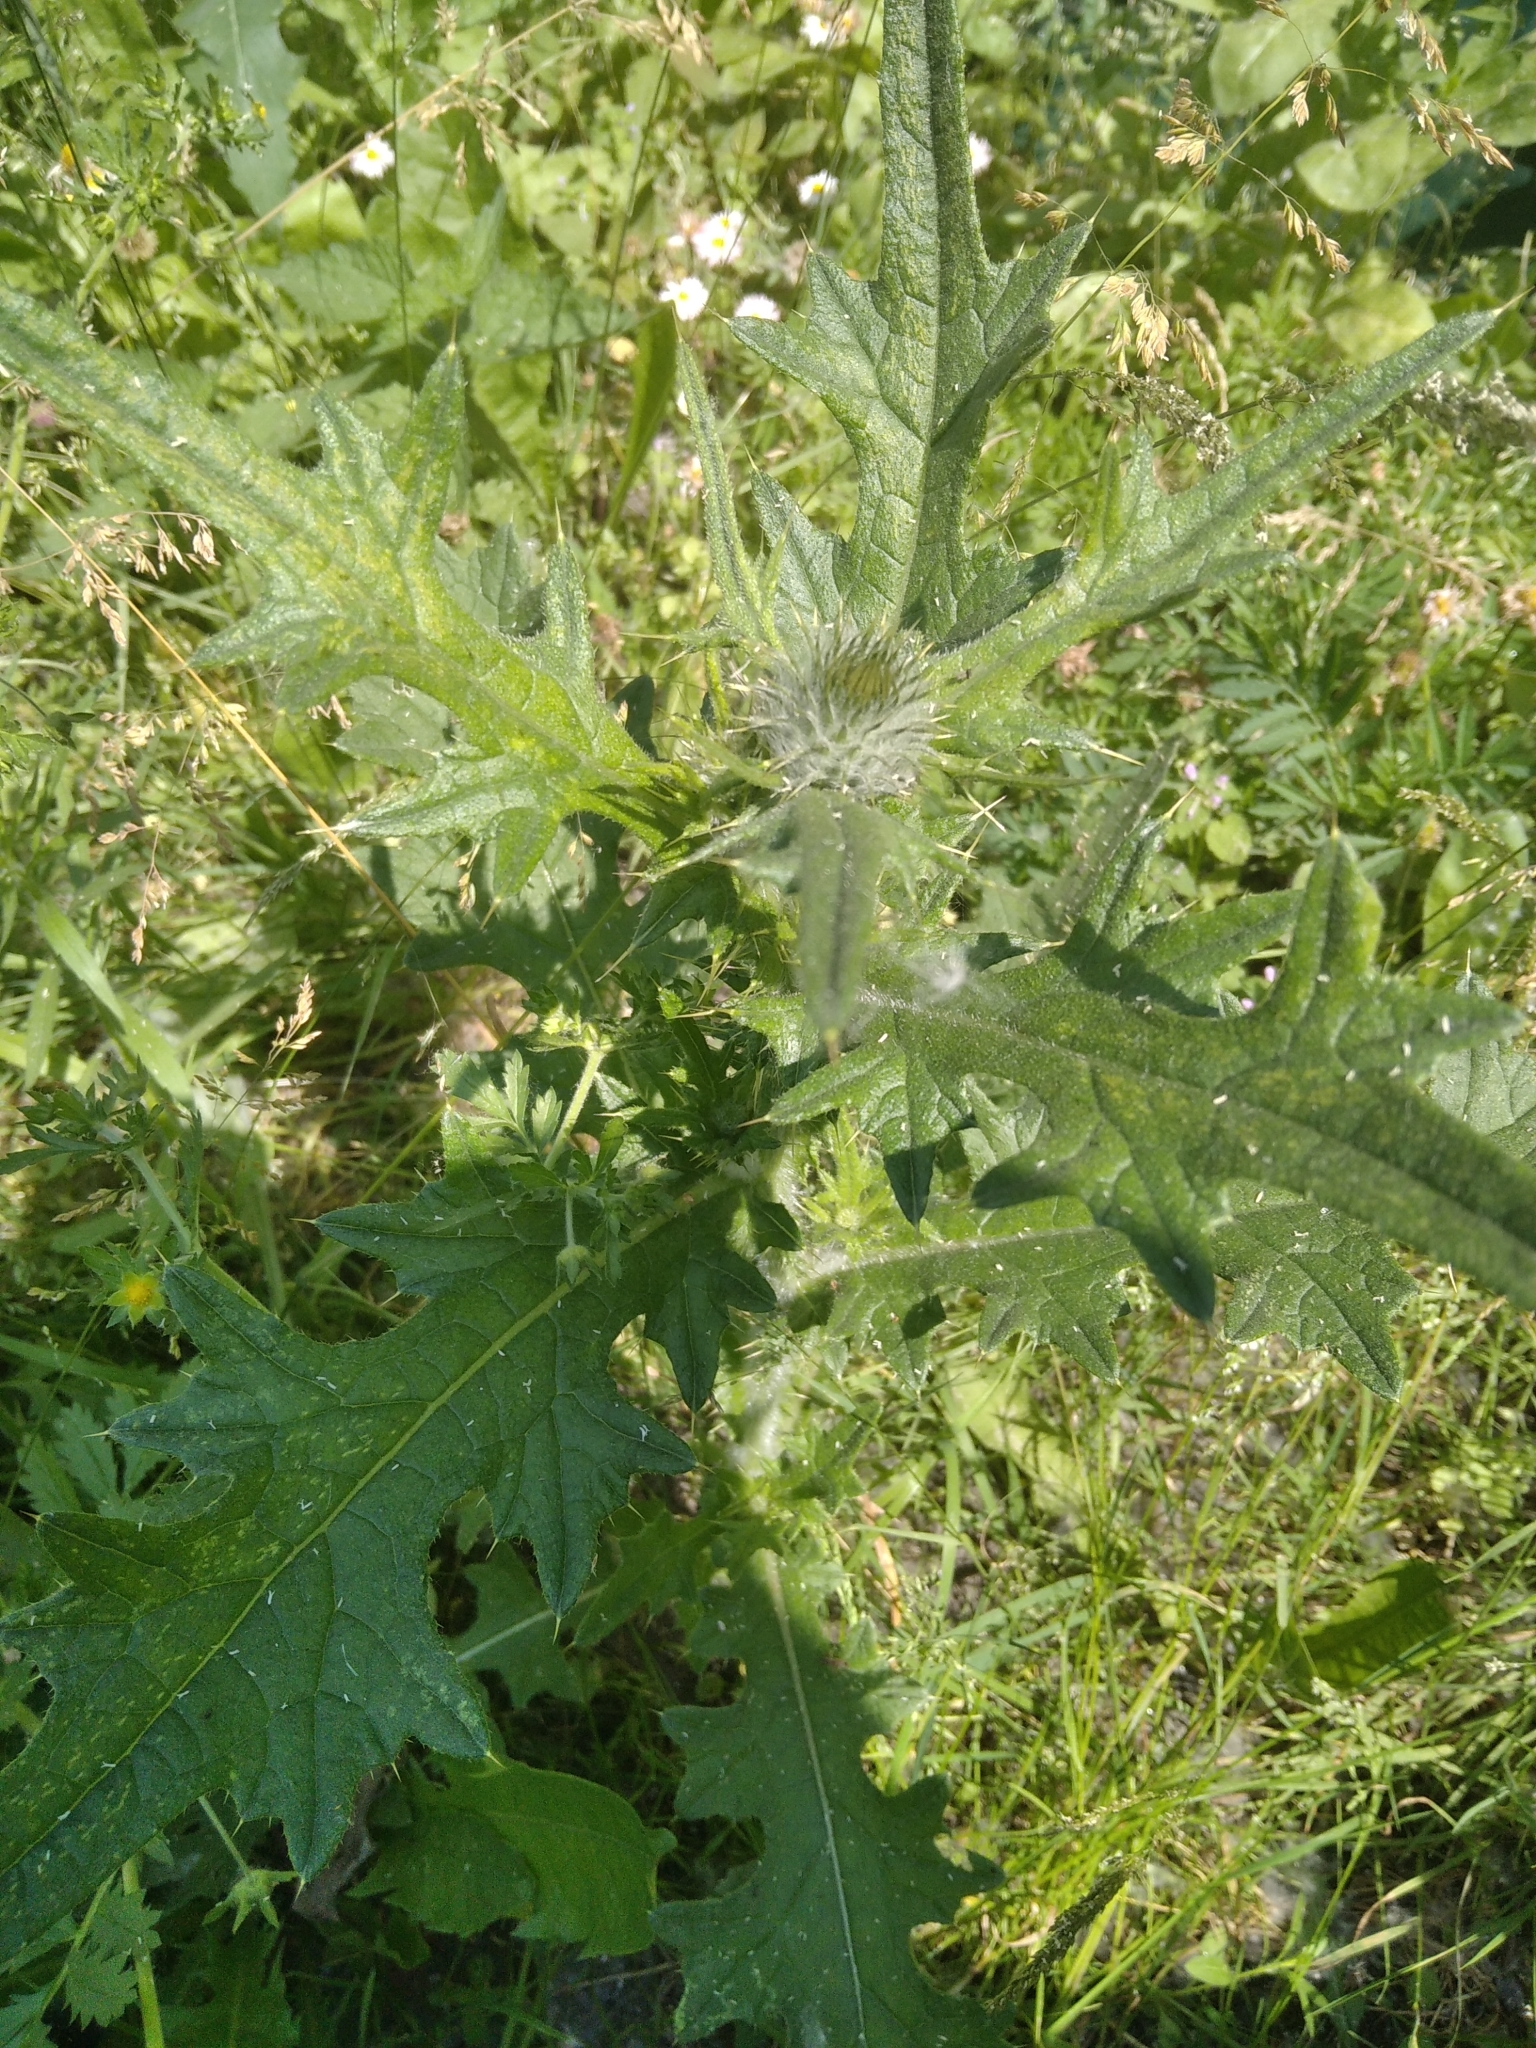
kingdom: Plantae
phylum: Tracheophyta
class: Magnoliopsida
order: Asterales
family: Asteraceae
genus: Cirsium
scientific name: Cirsium vulgare
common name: Bull thistle
